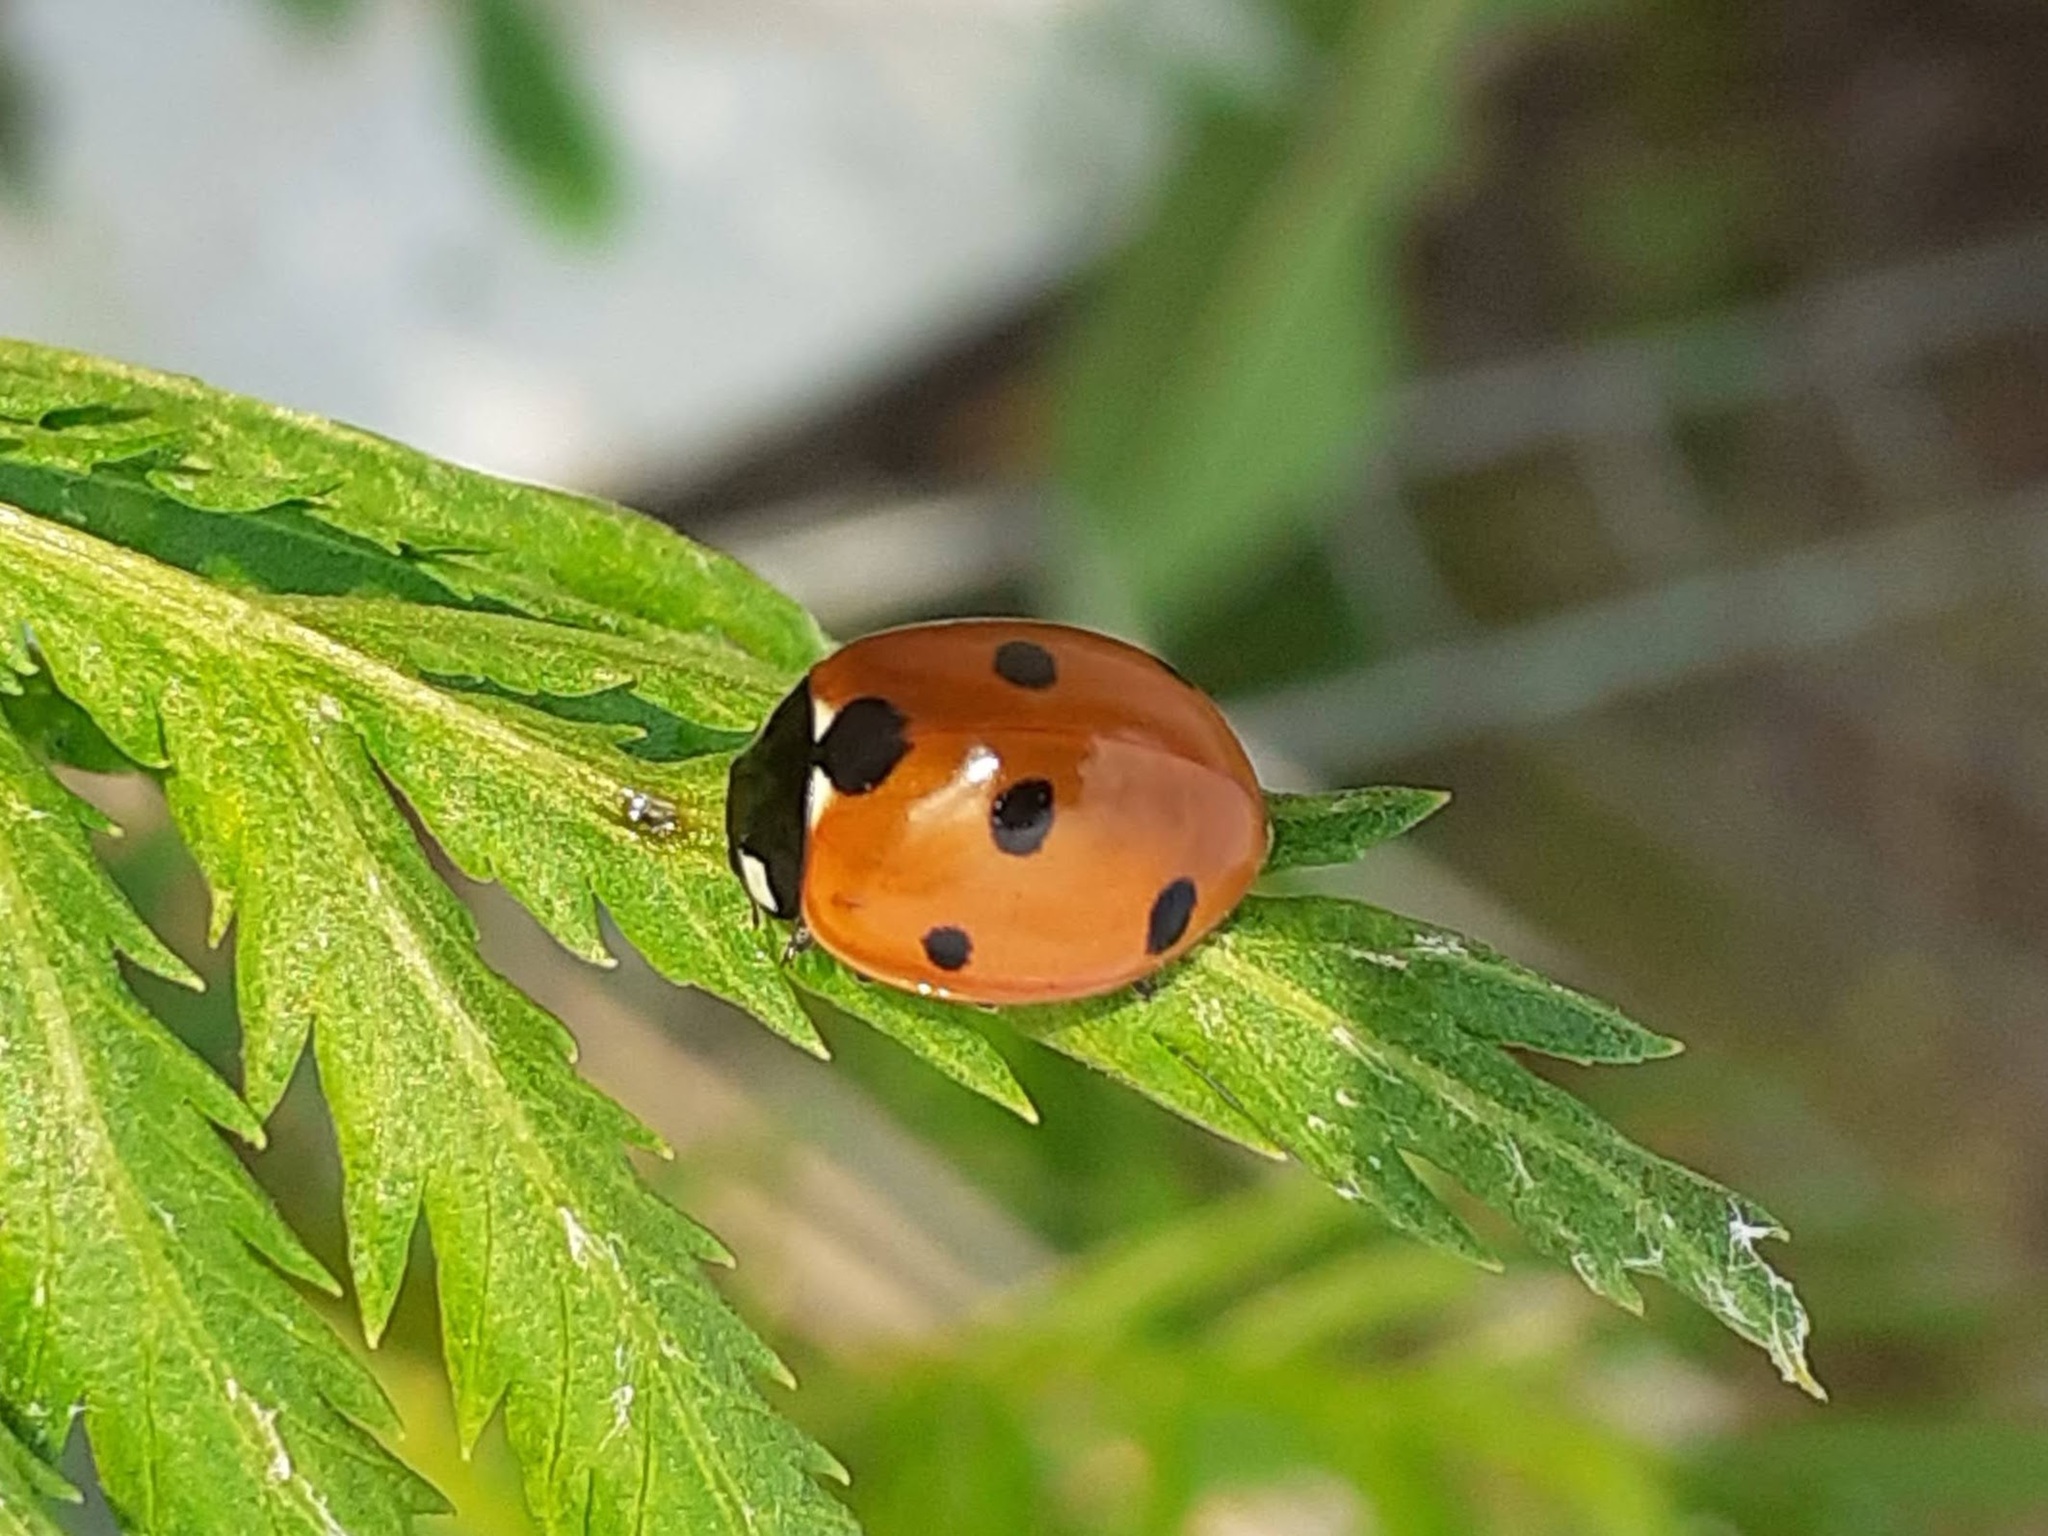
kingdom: Animalia
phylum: Arthropoda
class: Insecta
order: Coleoptera
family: Coccinellidae
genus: Coccinella
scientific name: Coccinella septempunctata
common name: Sevenspotted lady beetle
